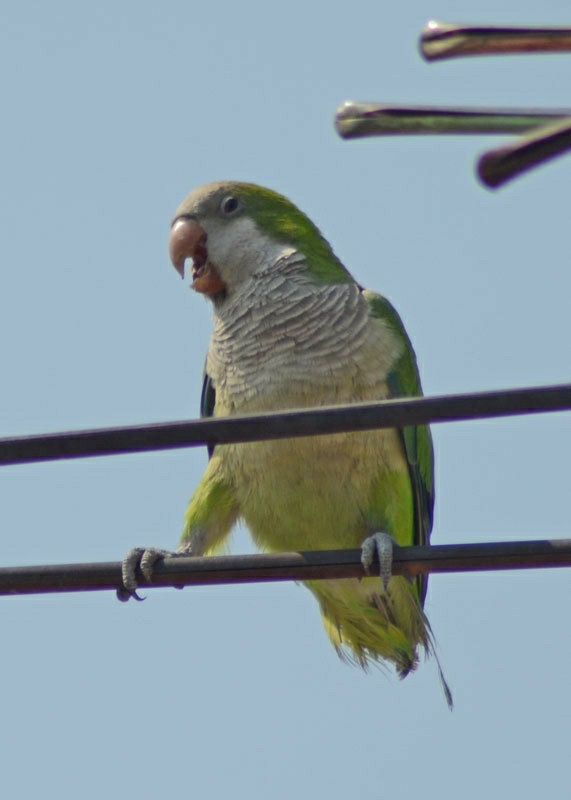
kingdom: Animalia
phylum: Chordata
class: Aves
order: Psittaciformes
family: Psittacidae
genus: Myiopsitta
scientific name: Myiopsitta monachus
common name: Monk parakeet
